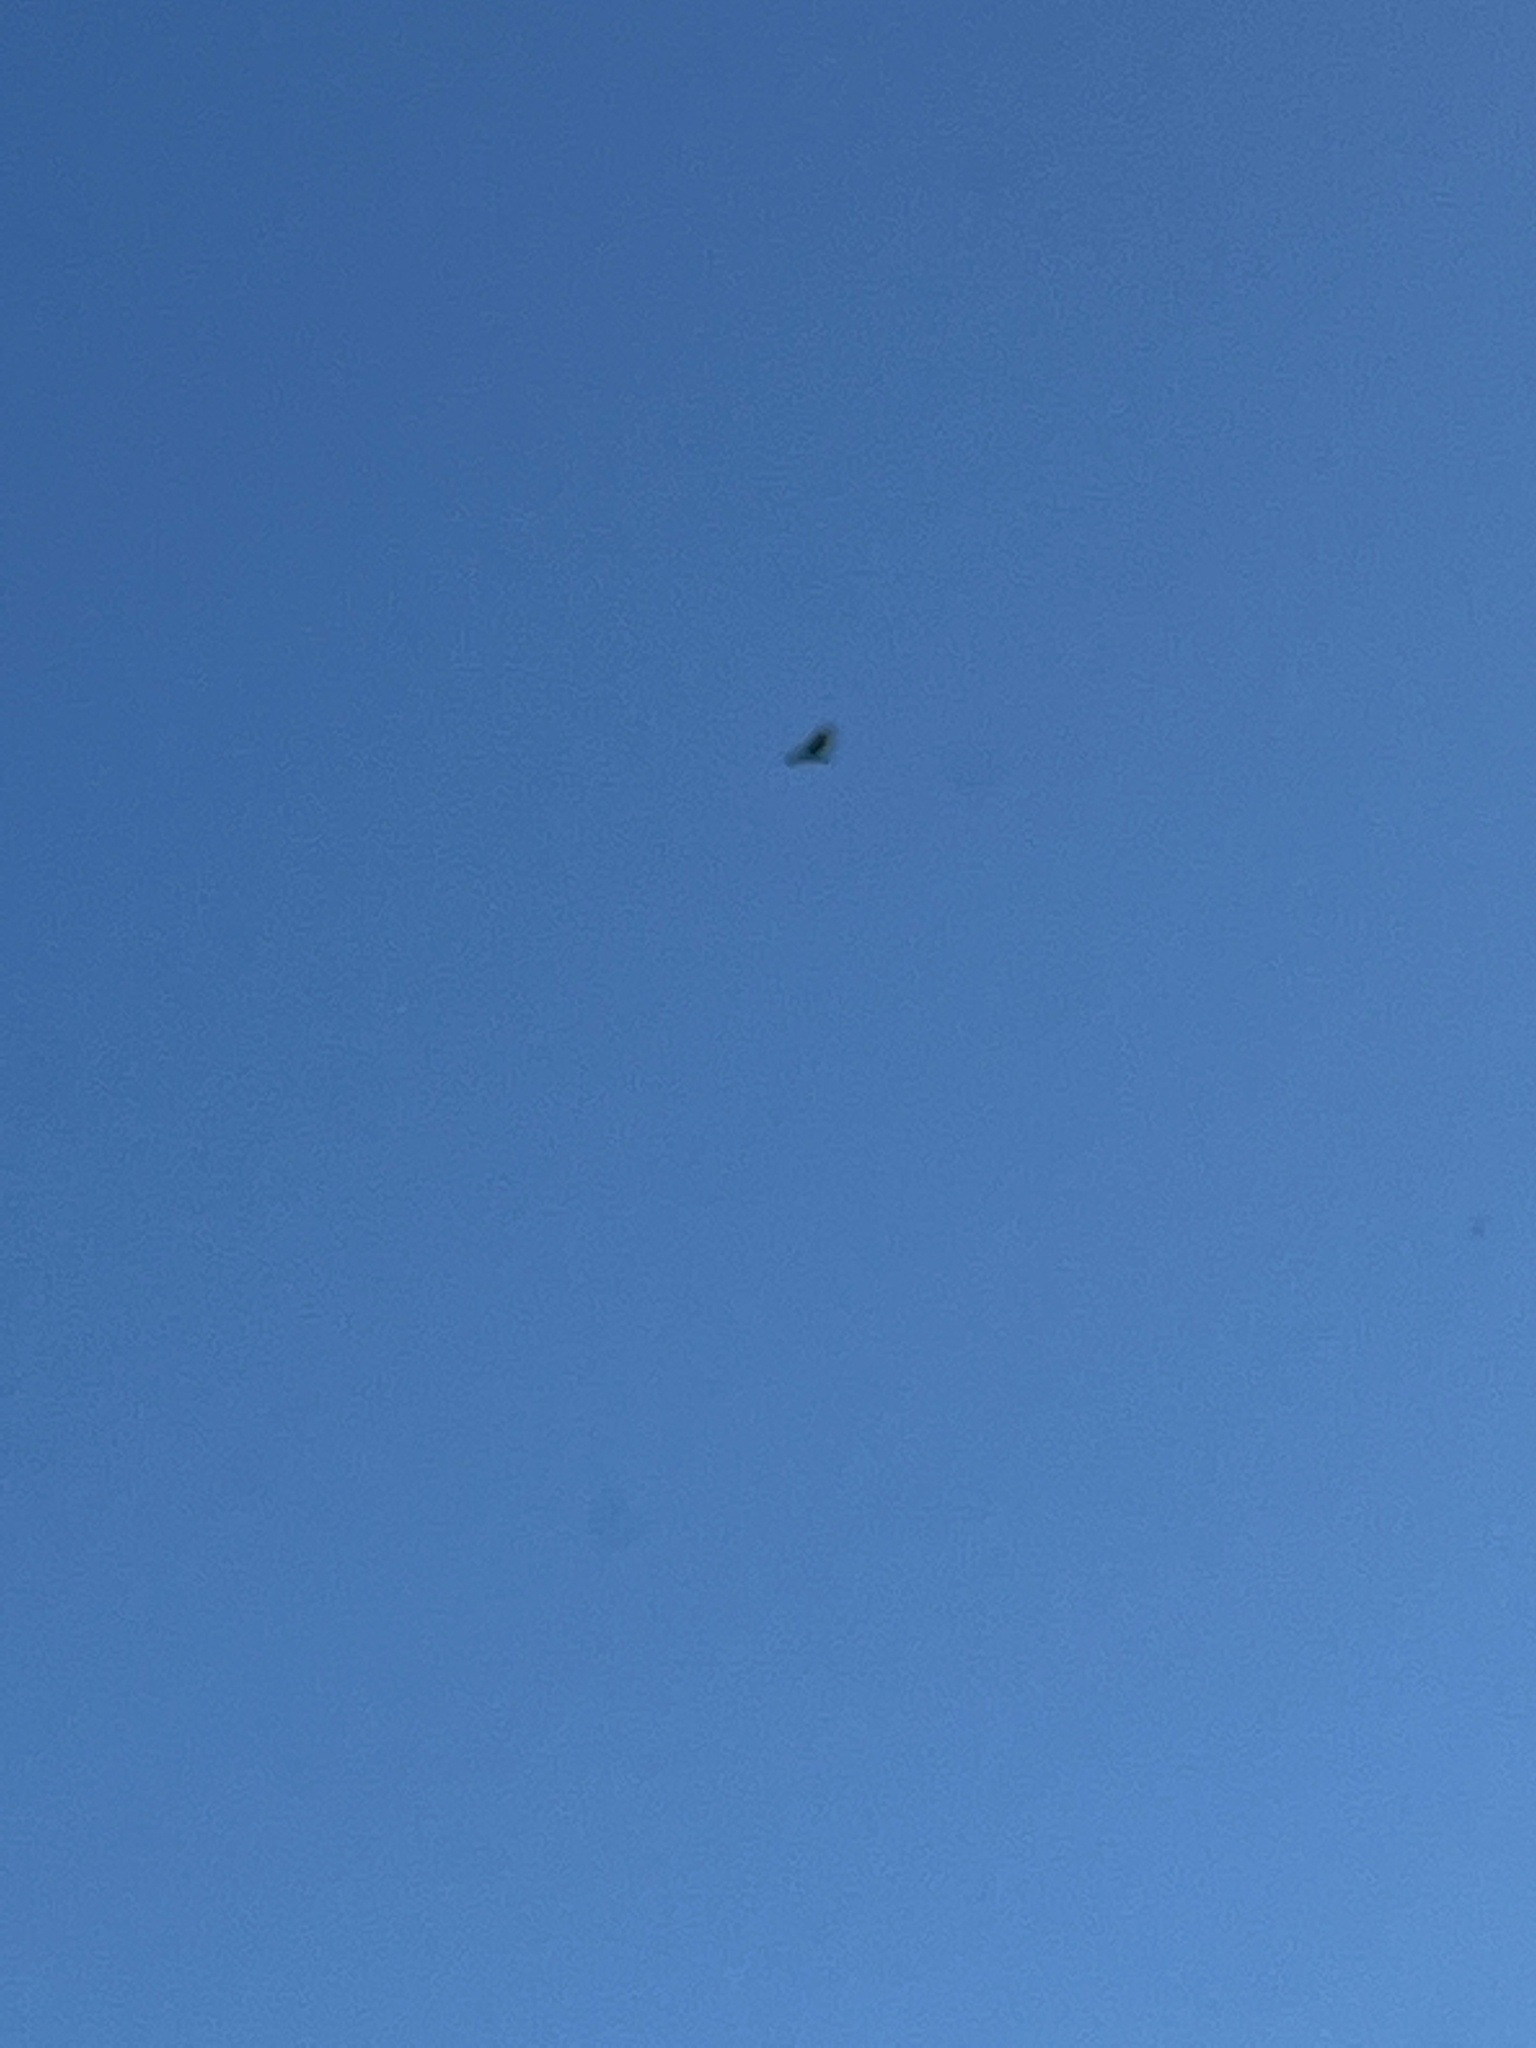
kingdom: Animalia
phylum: Chordata
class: Aves
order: Accipitriformes
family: Cathartidae
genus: Cathartes
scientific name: Cathartes aura
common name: Turkey vulture
